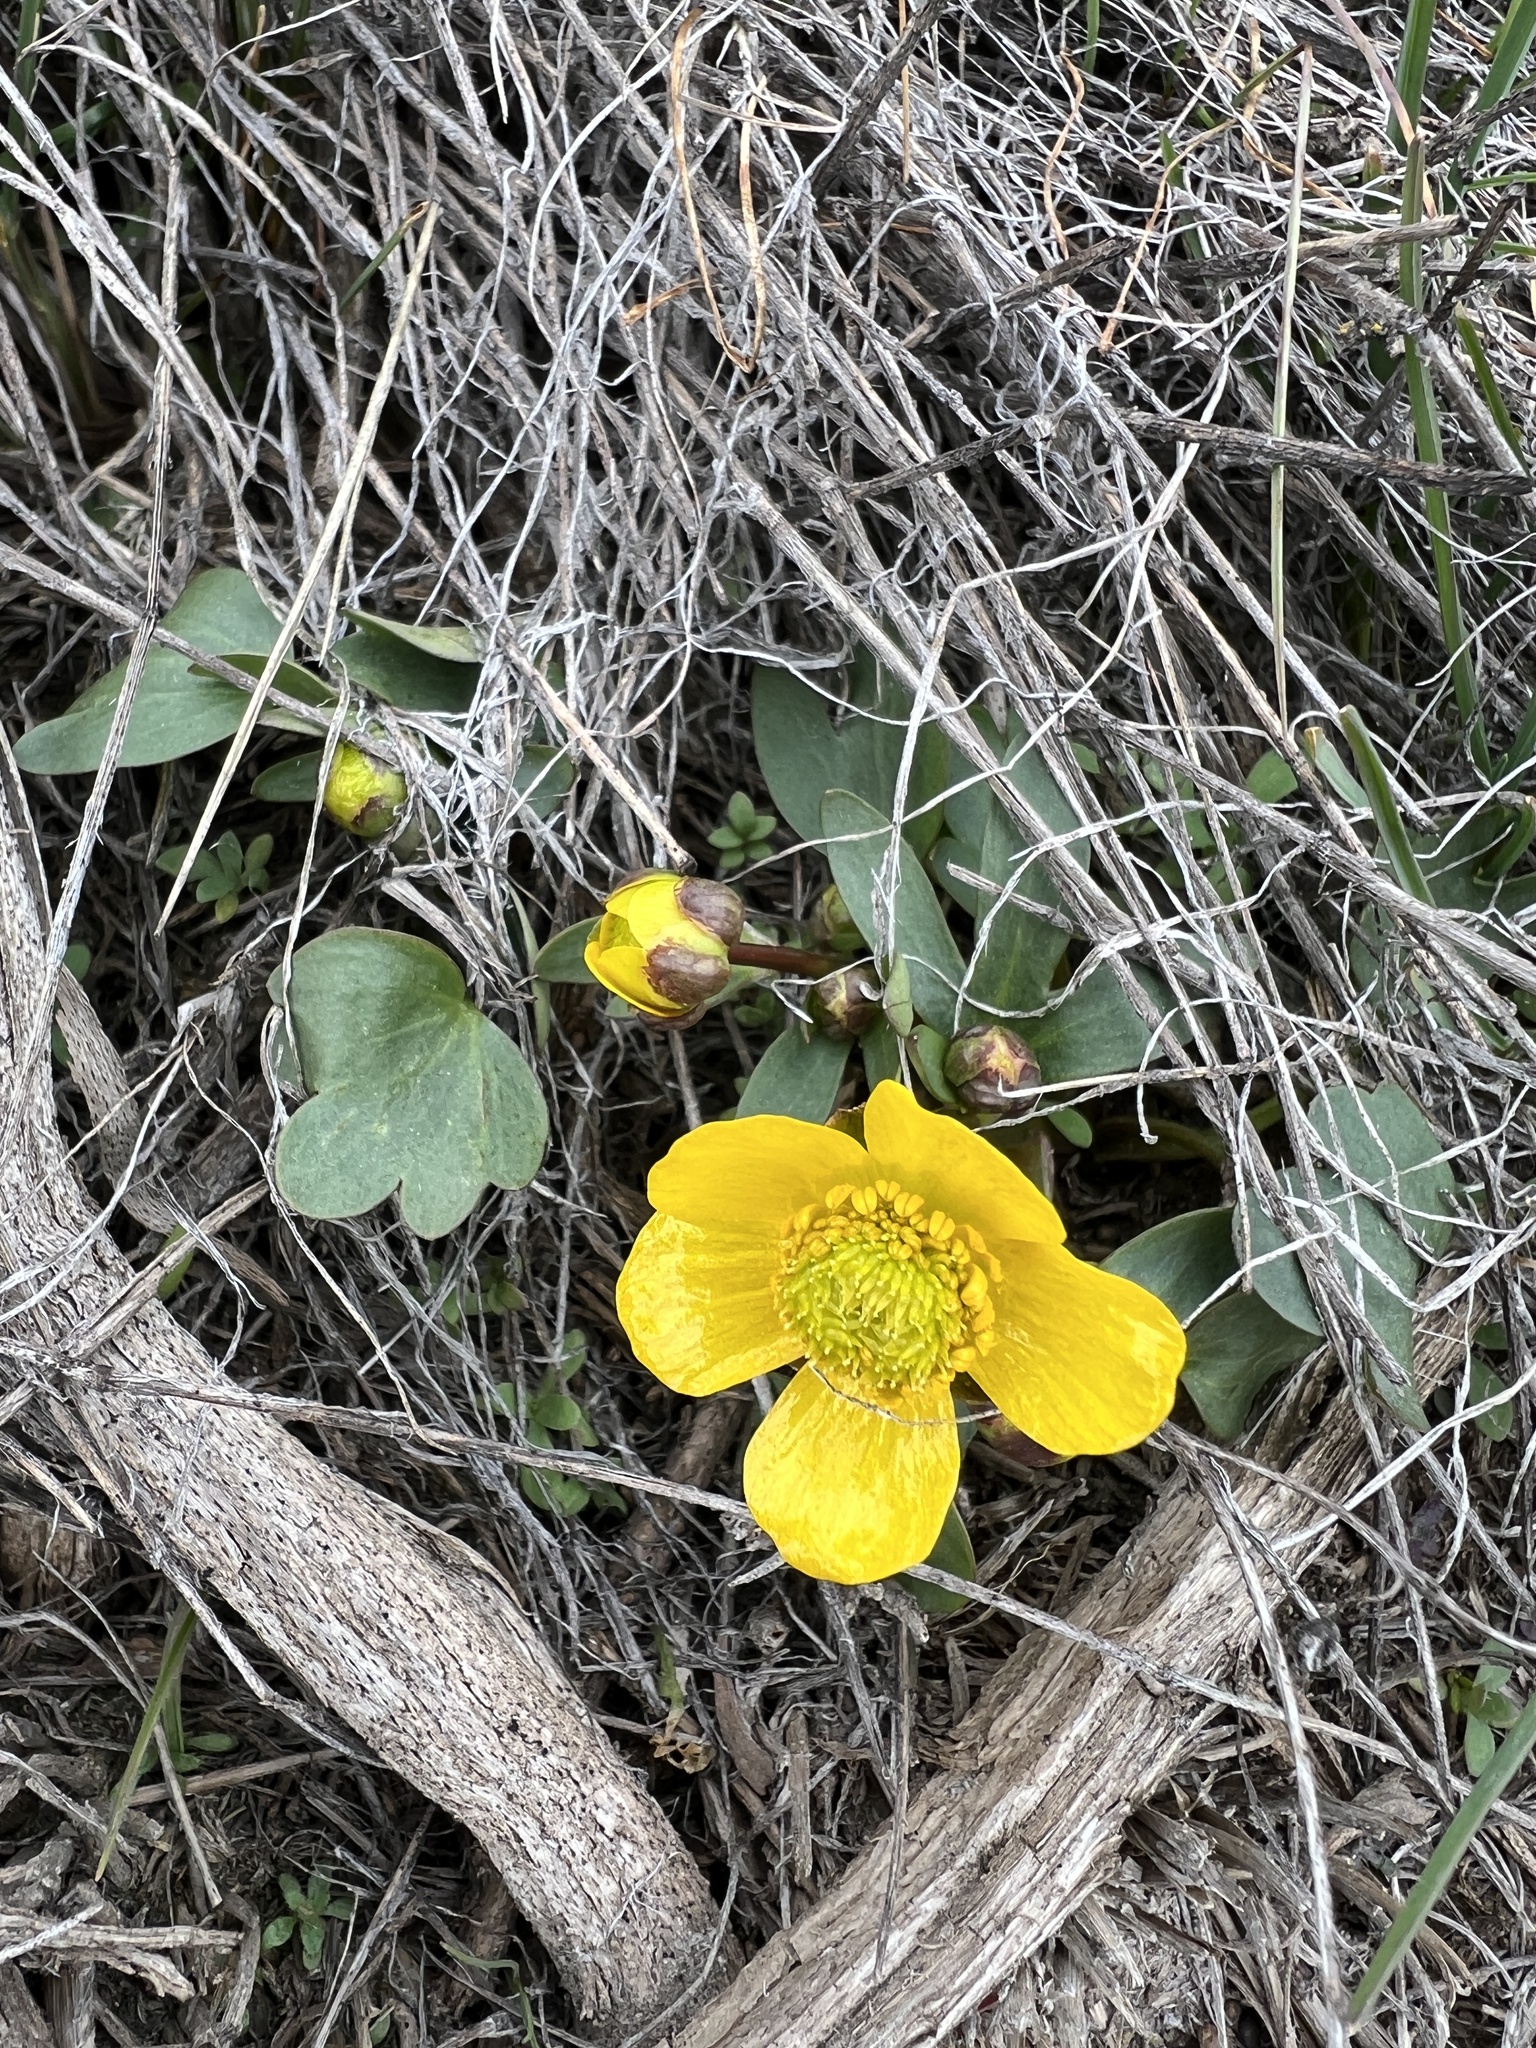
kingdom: Plantae
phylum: Tracheophyta
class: Magnoliopsida
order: Ranunculales
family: Ranunculaceae
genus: Ranunculus
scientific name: Ranunculus glaberrimus
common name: Sagebrush buttercup
